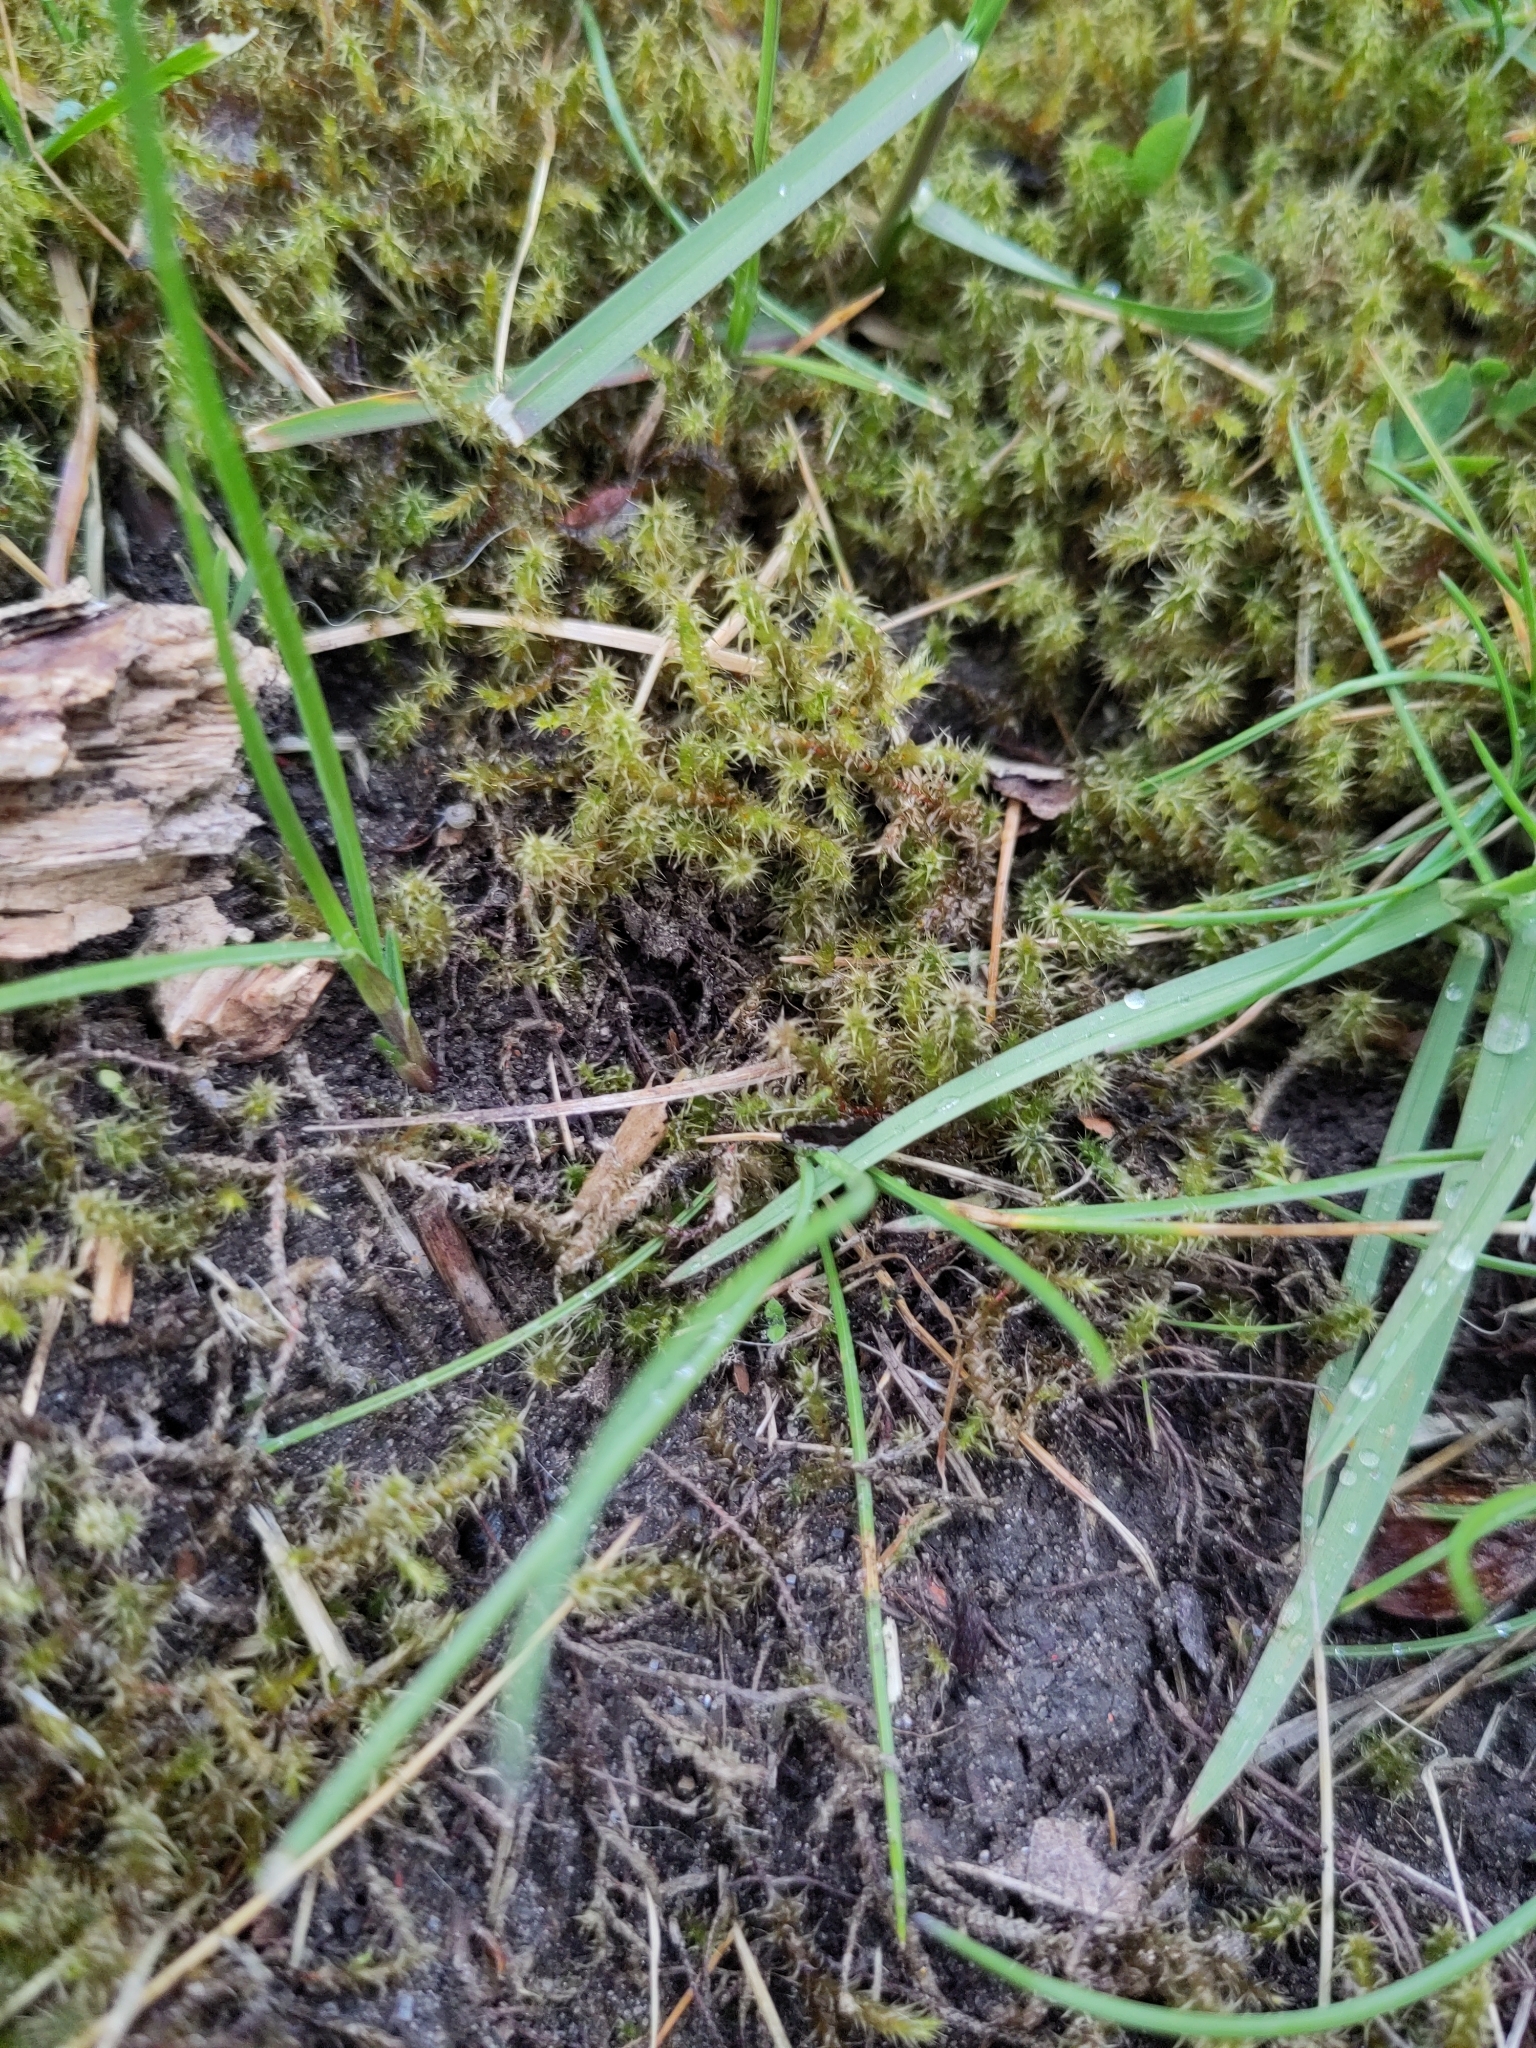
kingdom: Plantae
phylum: Bryophyta
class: Bryopsida
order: Hypnales
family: Hylocomiaceae
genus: Rhytidiadelphus
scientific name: Rhytidiadelphus squarrosus
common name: Springy turf-moss
